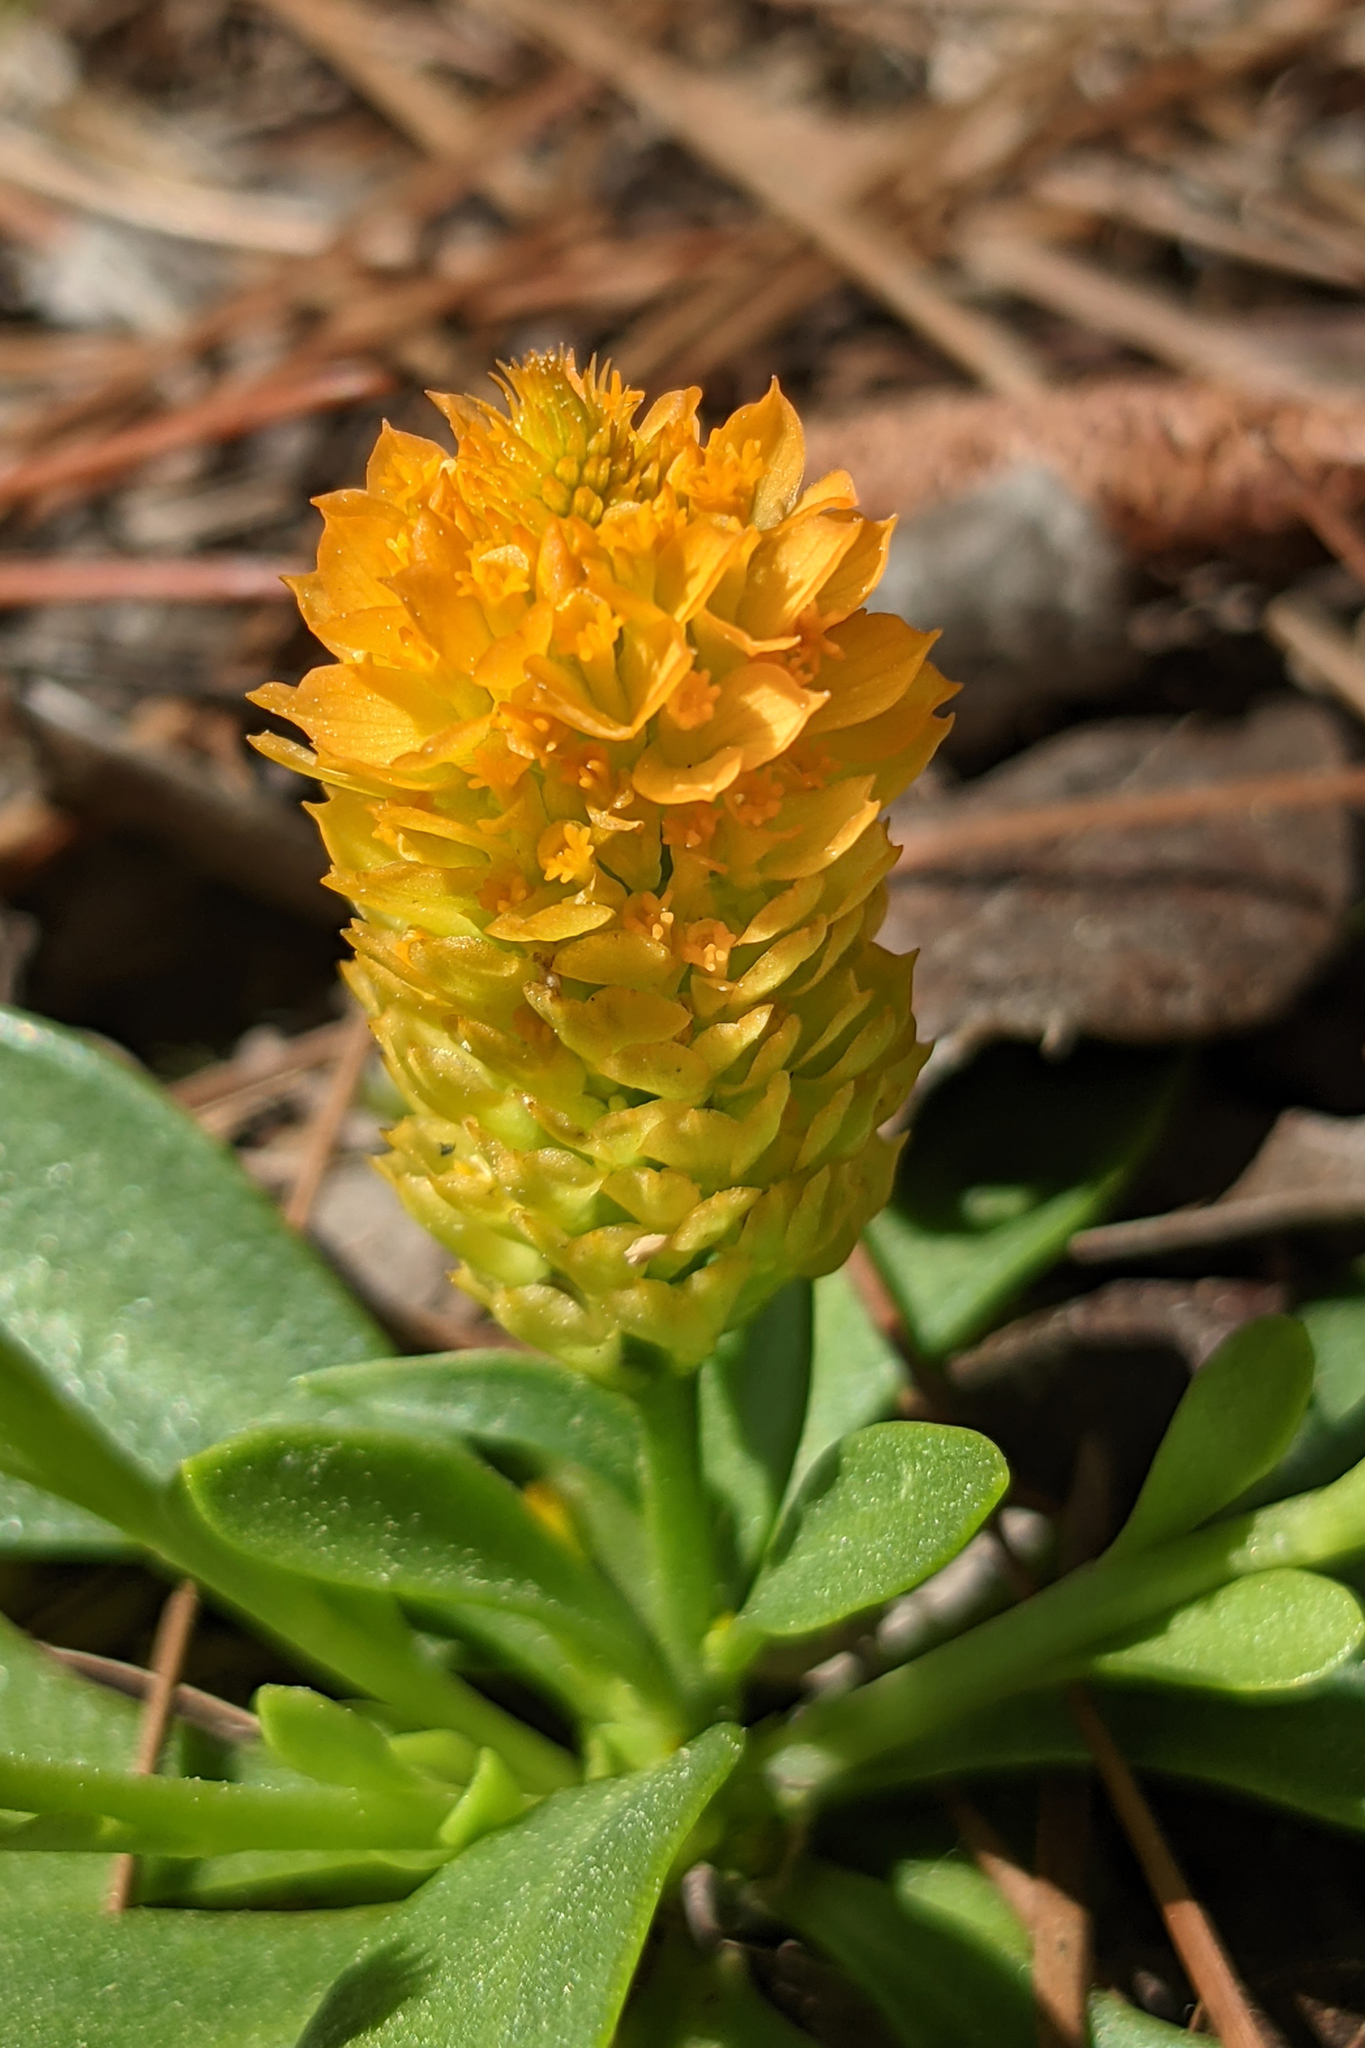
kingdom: Plantae
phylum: Tracheophyta
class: Magnoliopsida
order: Fabales
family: Polygalaceae
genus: Polygala
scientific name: Polygala lutea
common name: Orange milkwort
